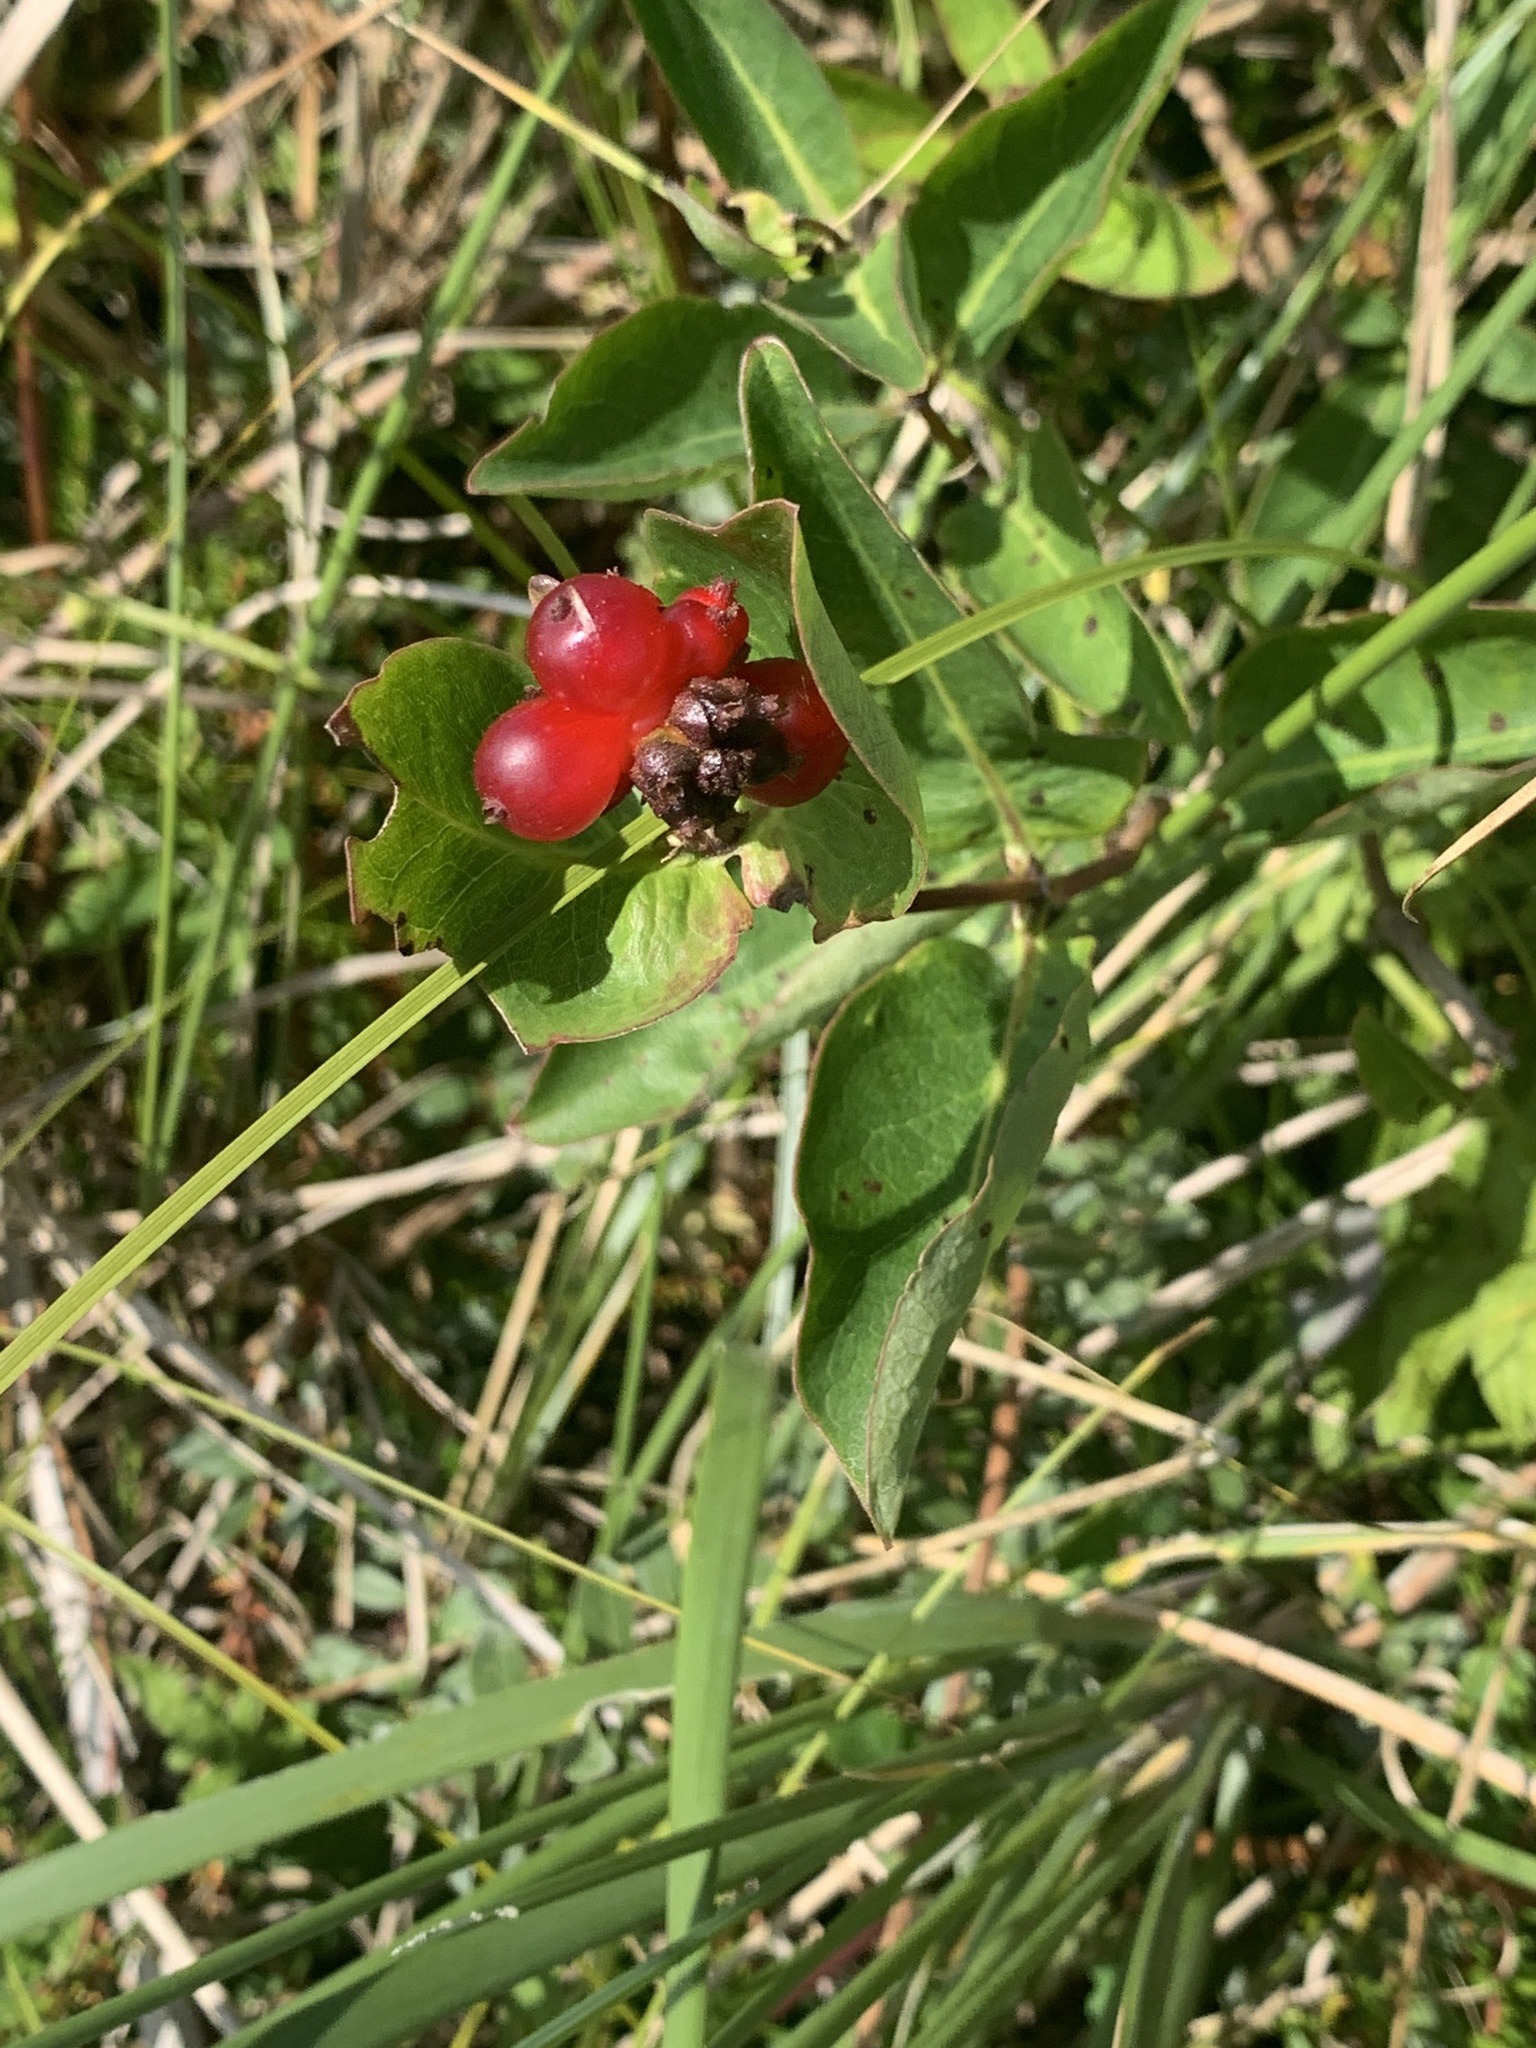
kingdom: Plantae
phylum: Tracheophyta
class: Magnoliopsida
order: Dipsacales
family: Caprifoliaceae
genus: Lonicera
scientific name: Lonicera periclymenum
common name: European honeysuckle
